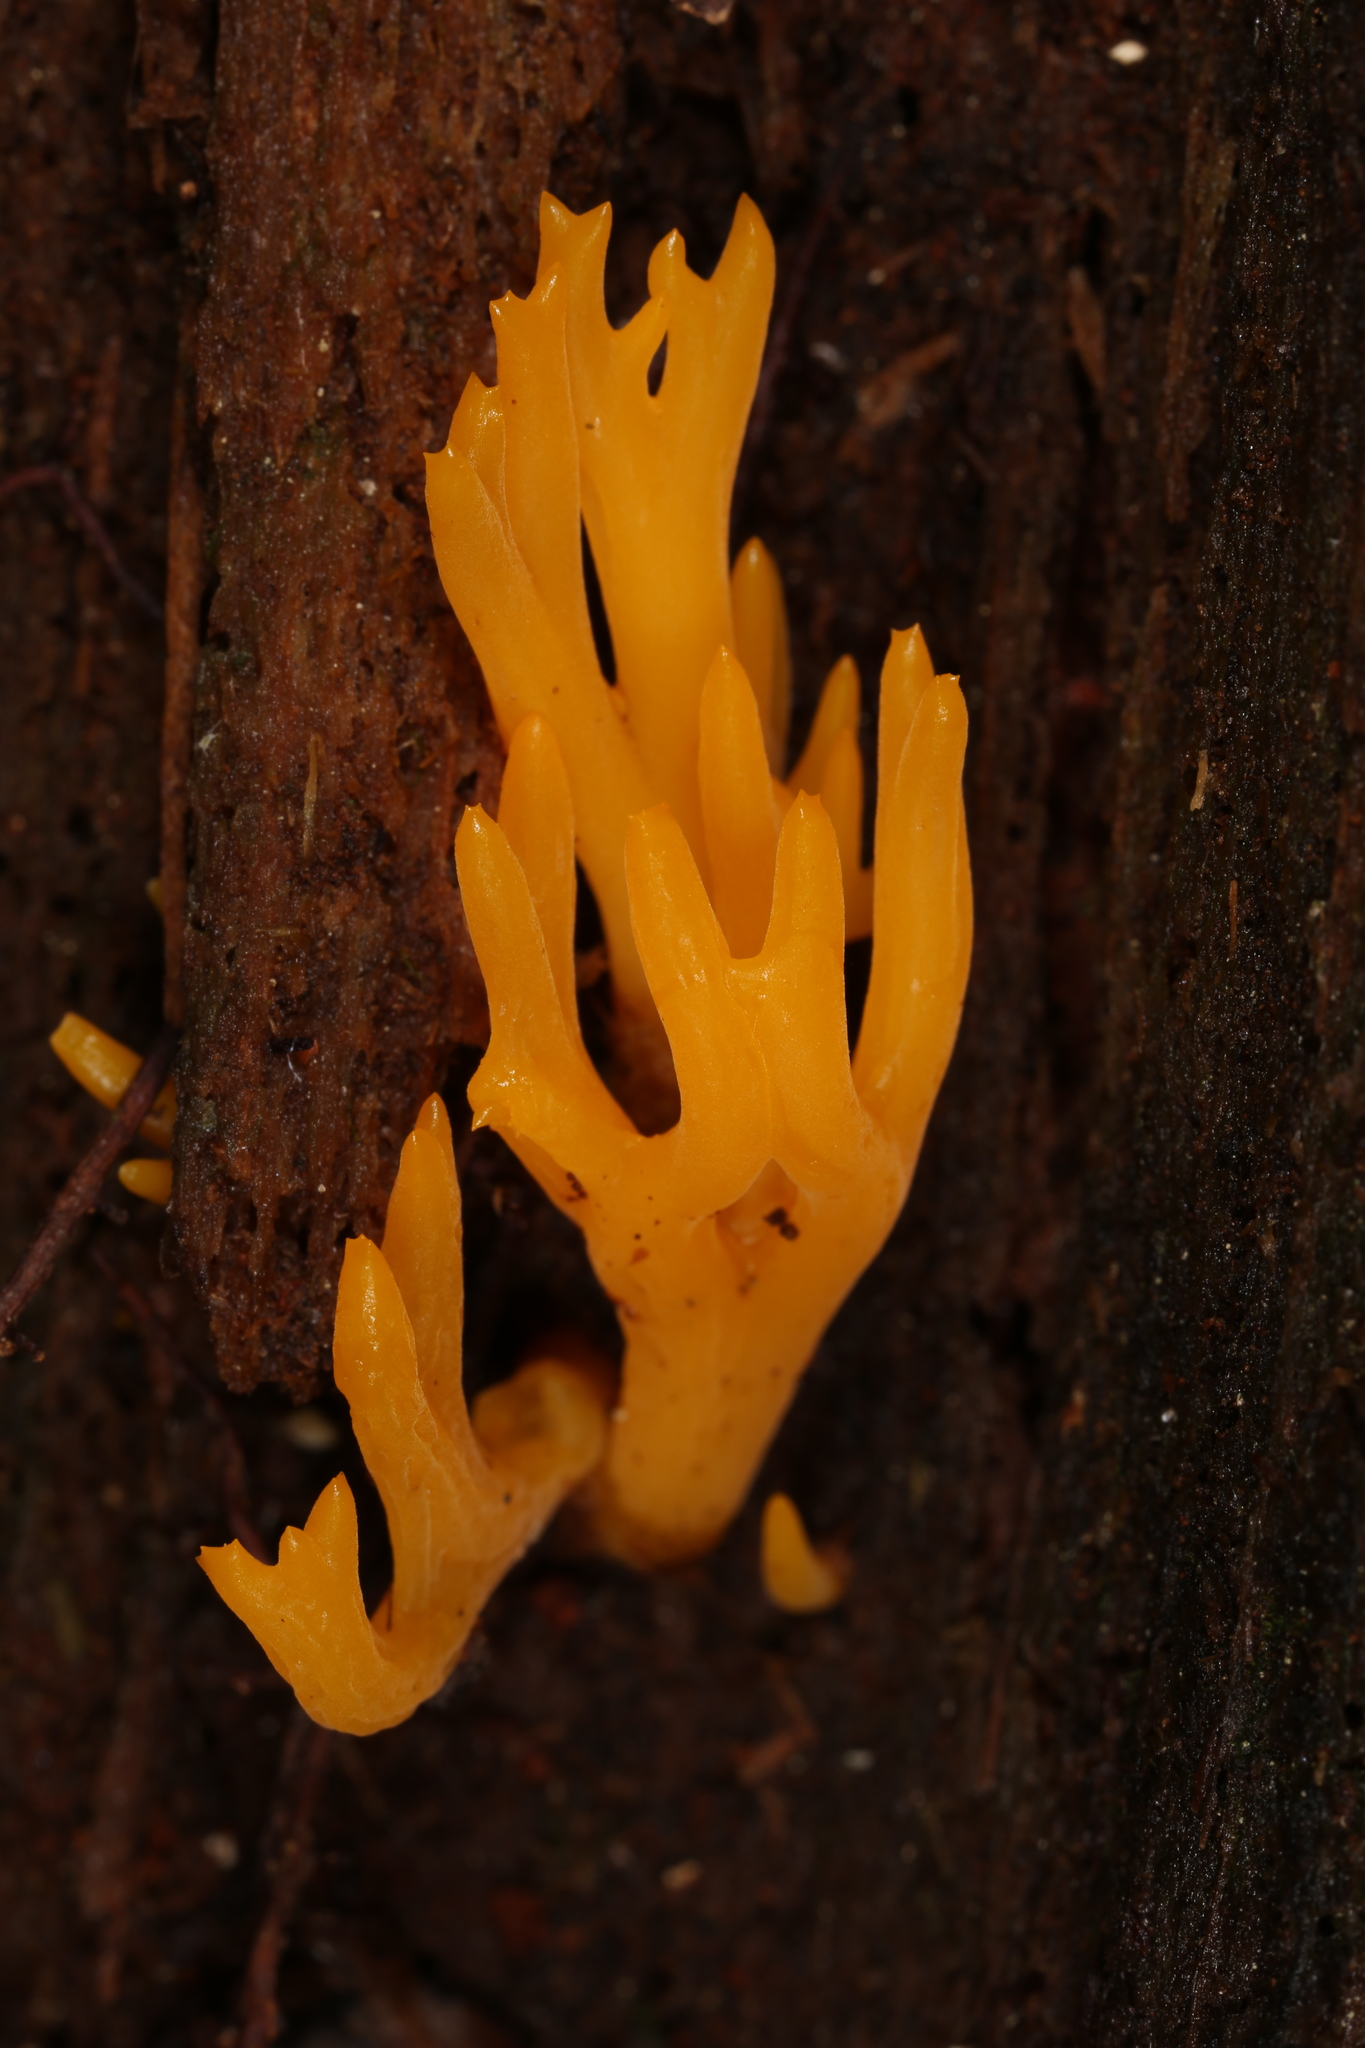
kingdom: Fungi
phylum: Basidiomycota
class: Dacrymycetes
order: Dacrymycetales
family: Dacrymycetaceae
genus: Calocera
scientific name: Calocera viscosa
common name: Yellow stagshorn
